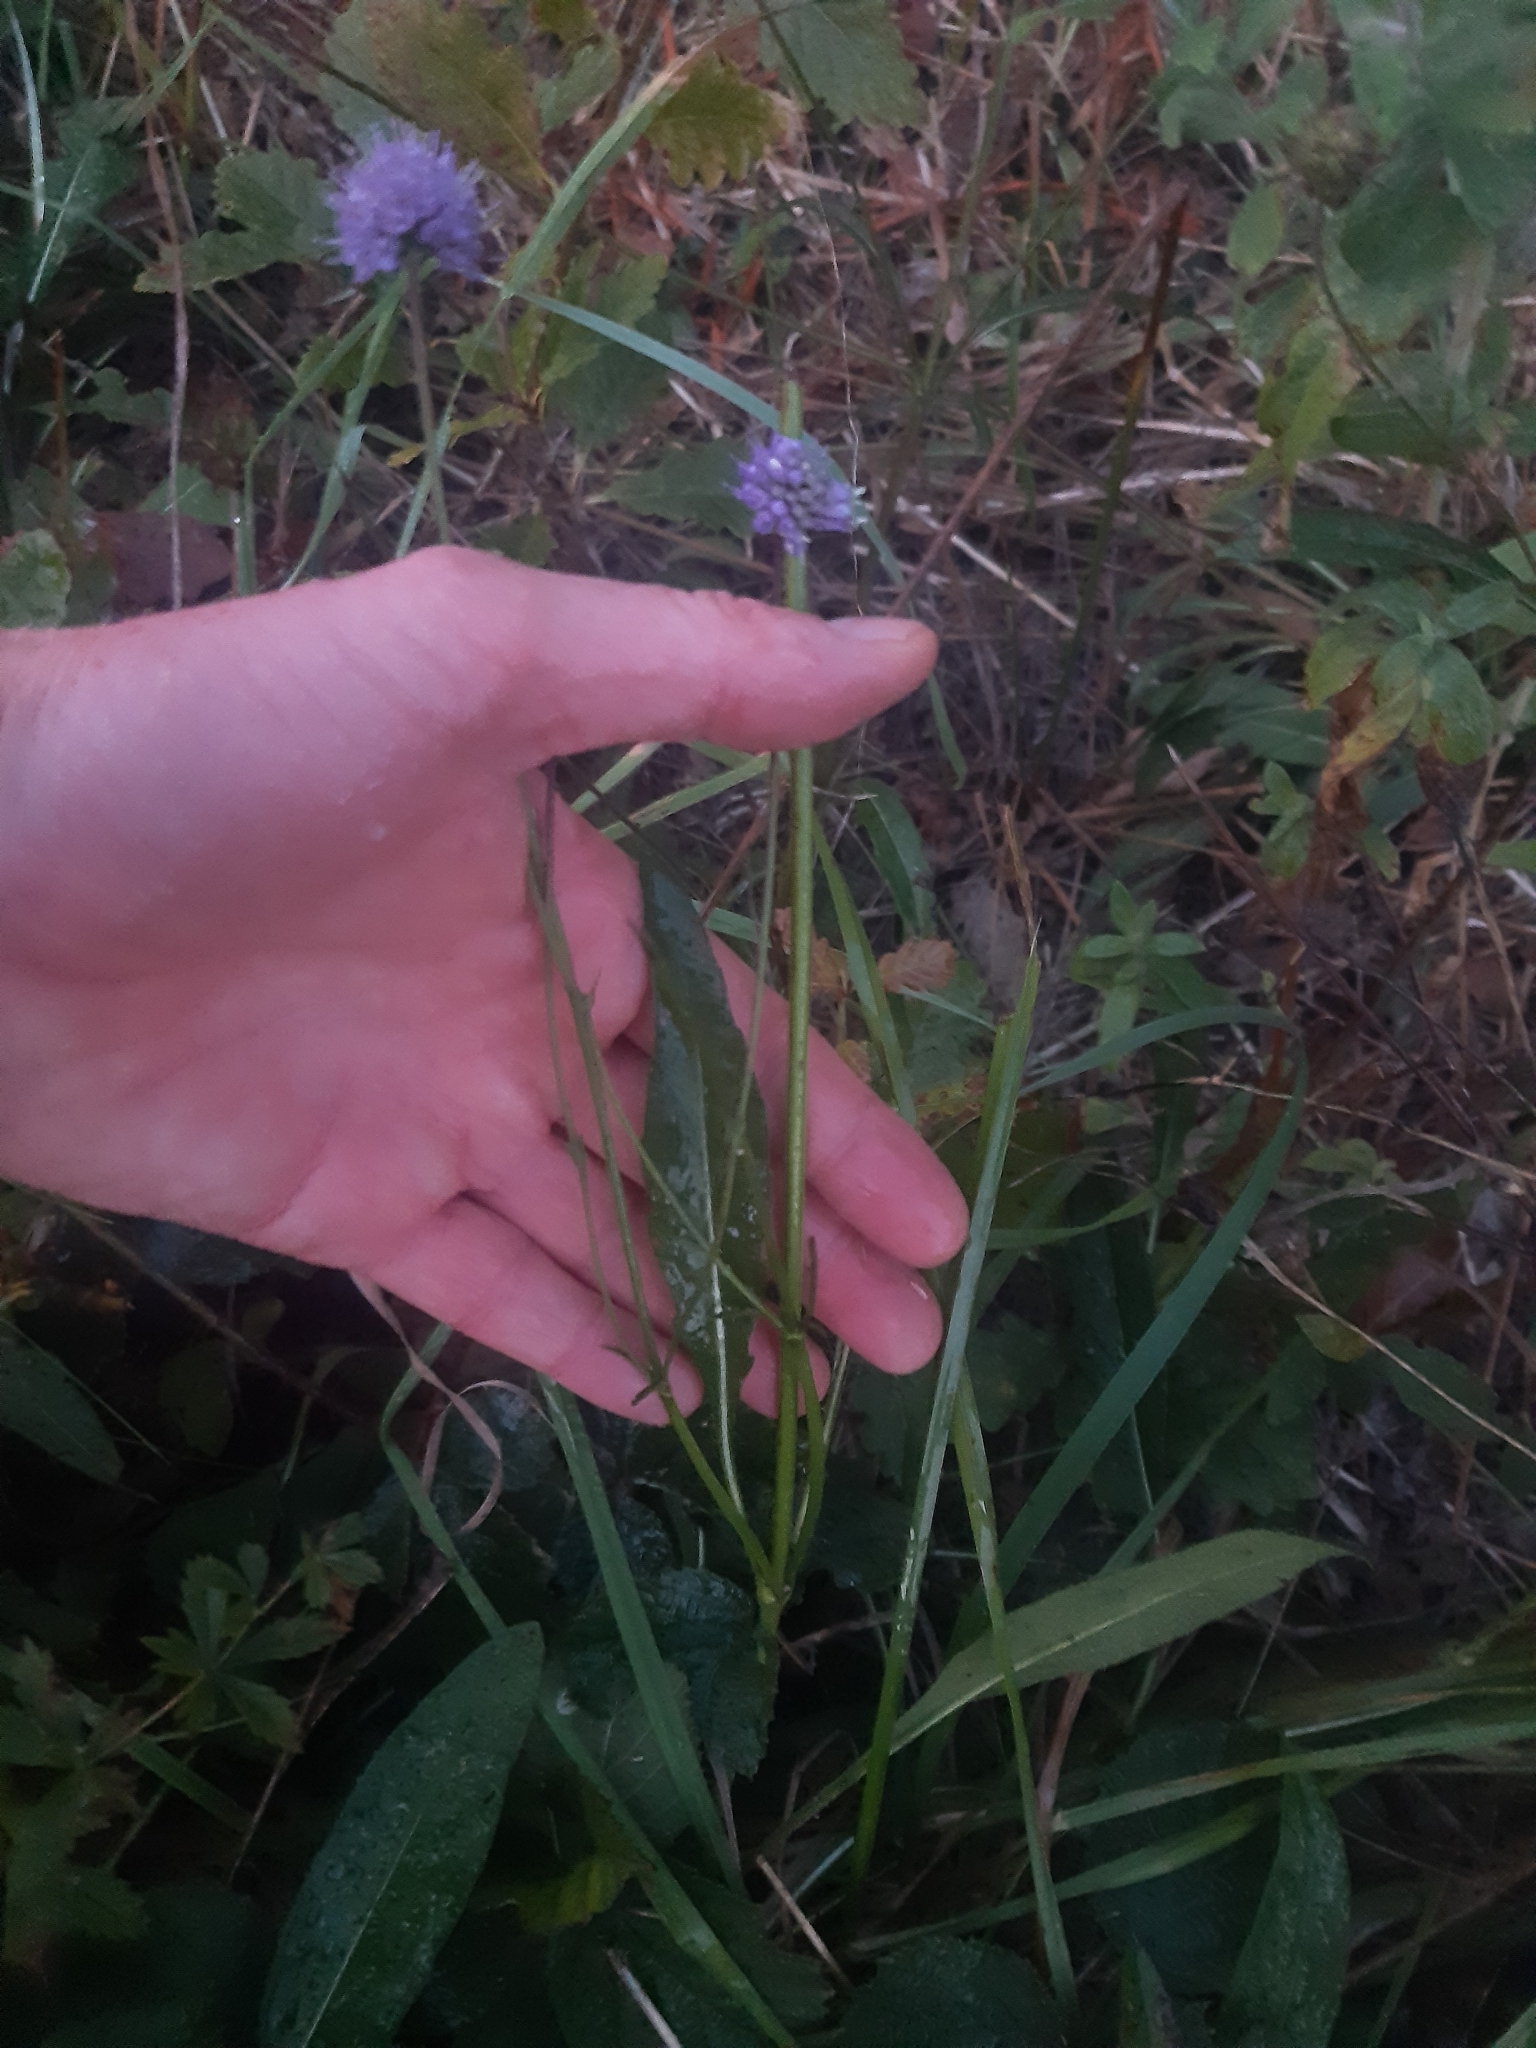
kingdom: Plantae
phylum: Tracheophyta
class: Magnoliopsida
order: Dipsacales
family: Caprifoliaceae
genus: Succisa
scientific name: Succisa pratensis
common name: Devil's-bit
